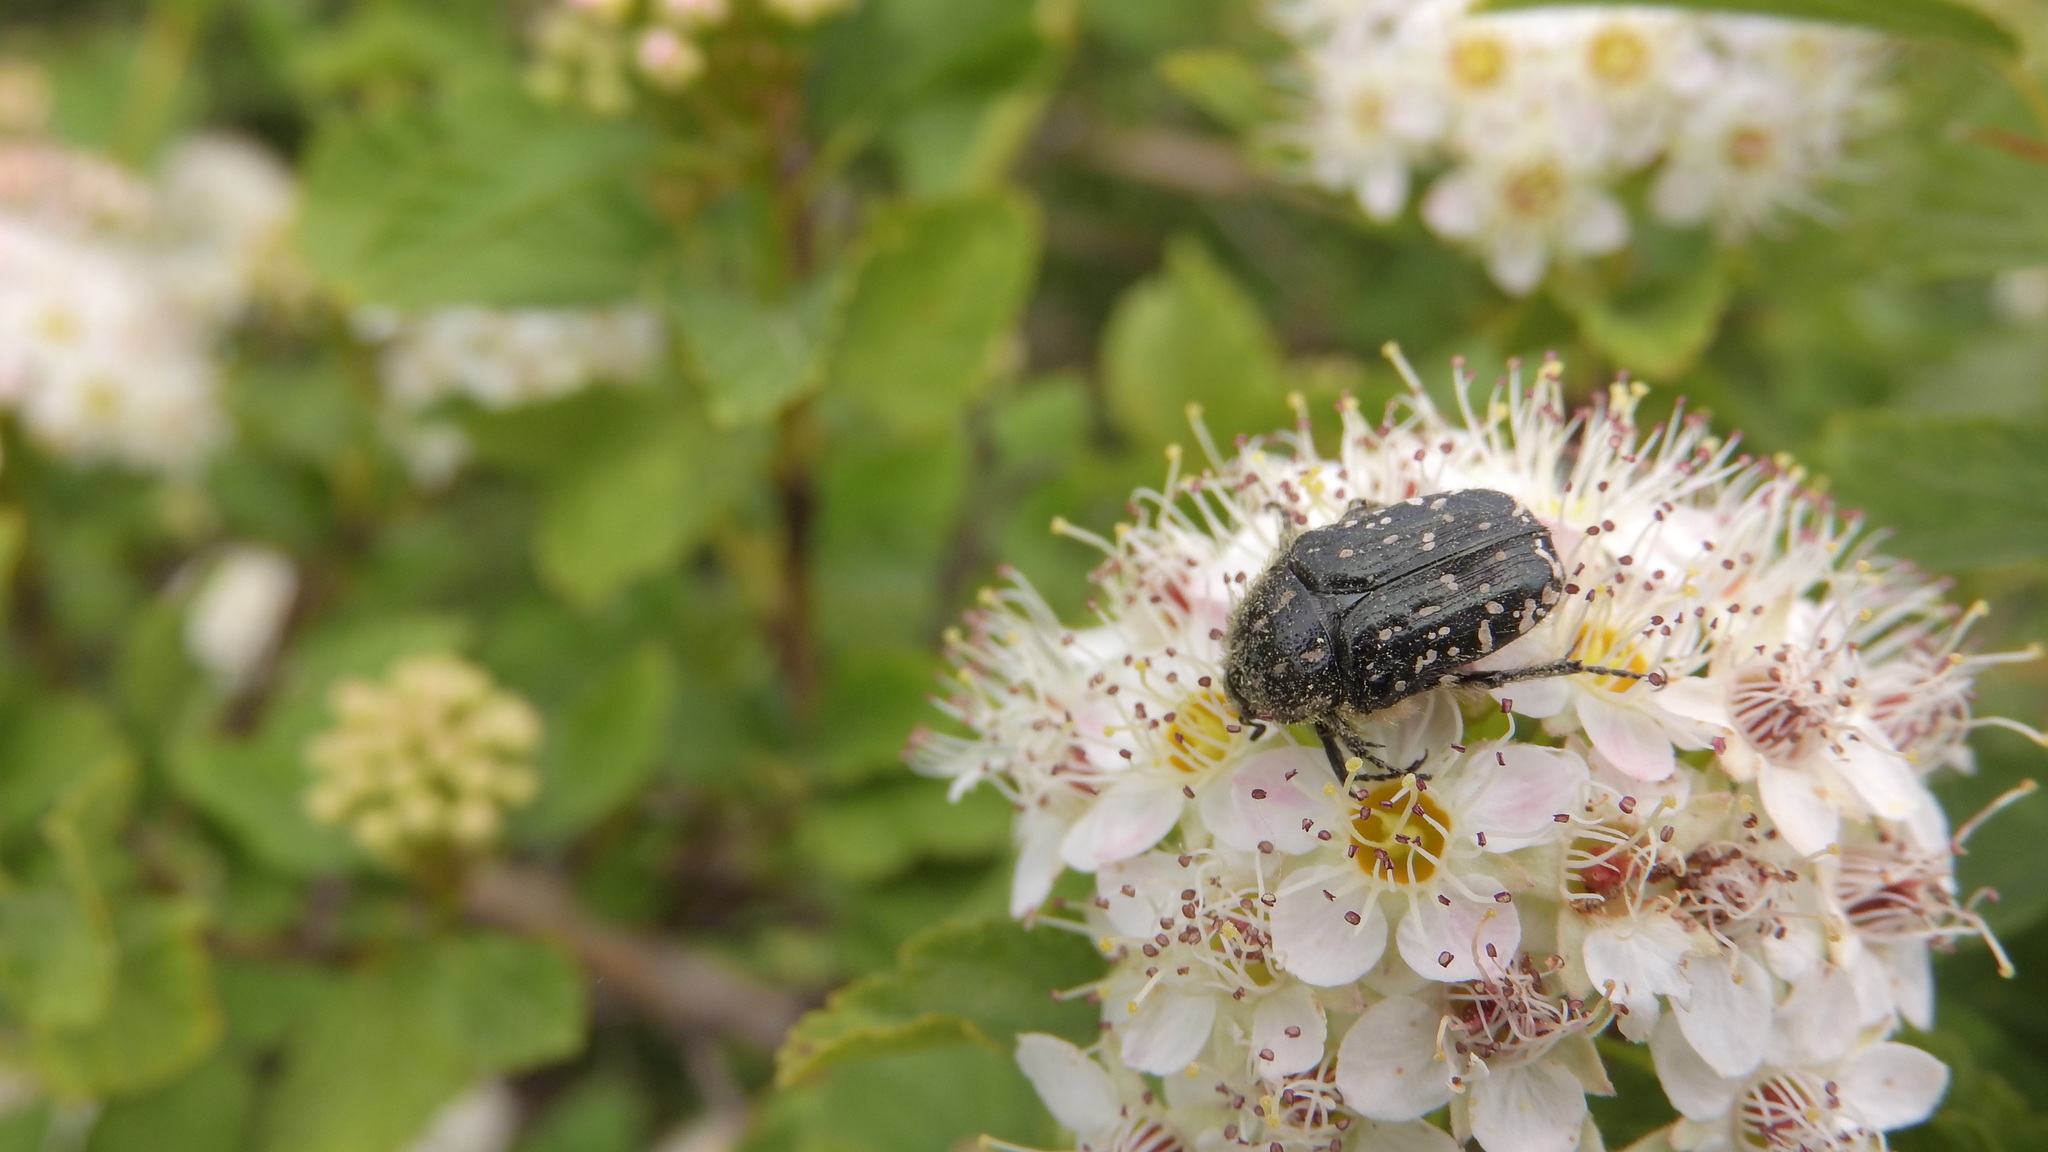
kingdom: Animalia
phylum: Arthropoda
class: Insecta
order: Coleoptera
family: Scarabaeidae
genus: Oxythyrea
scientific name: Oxythyrea funesta
